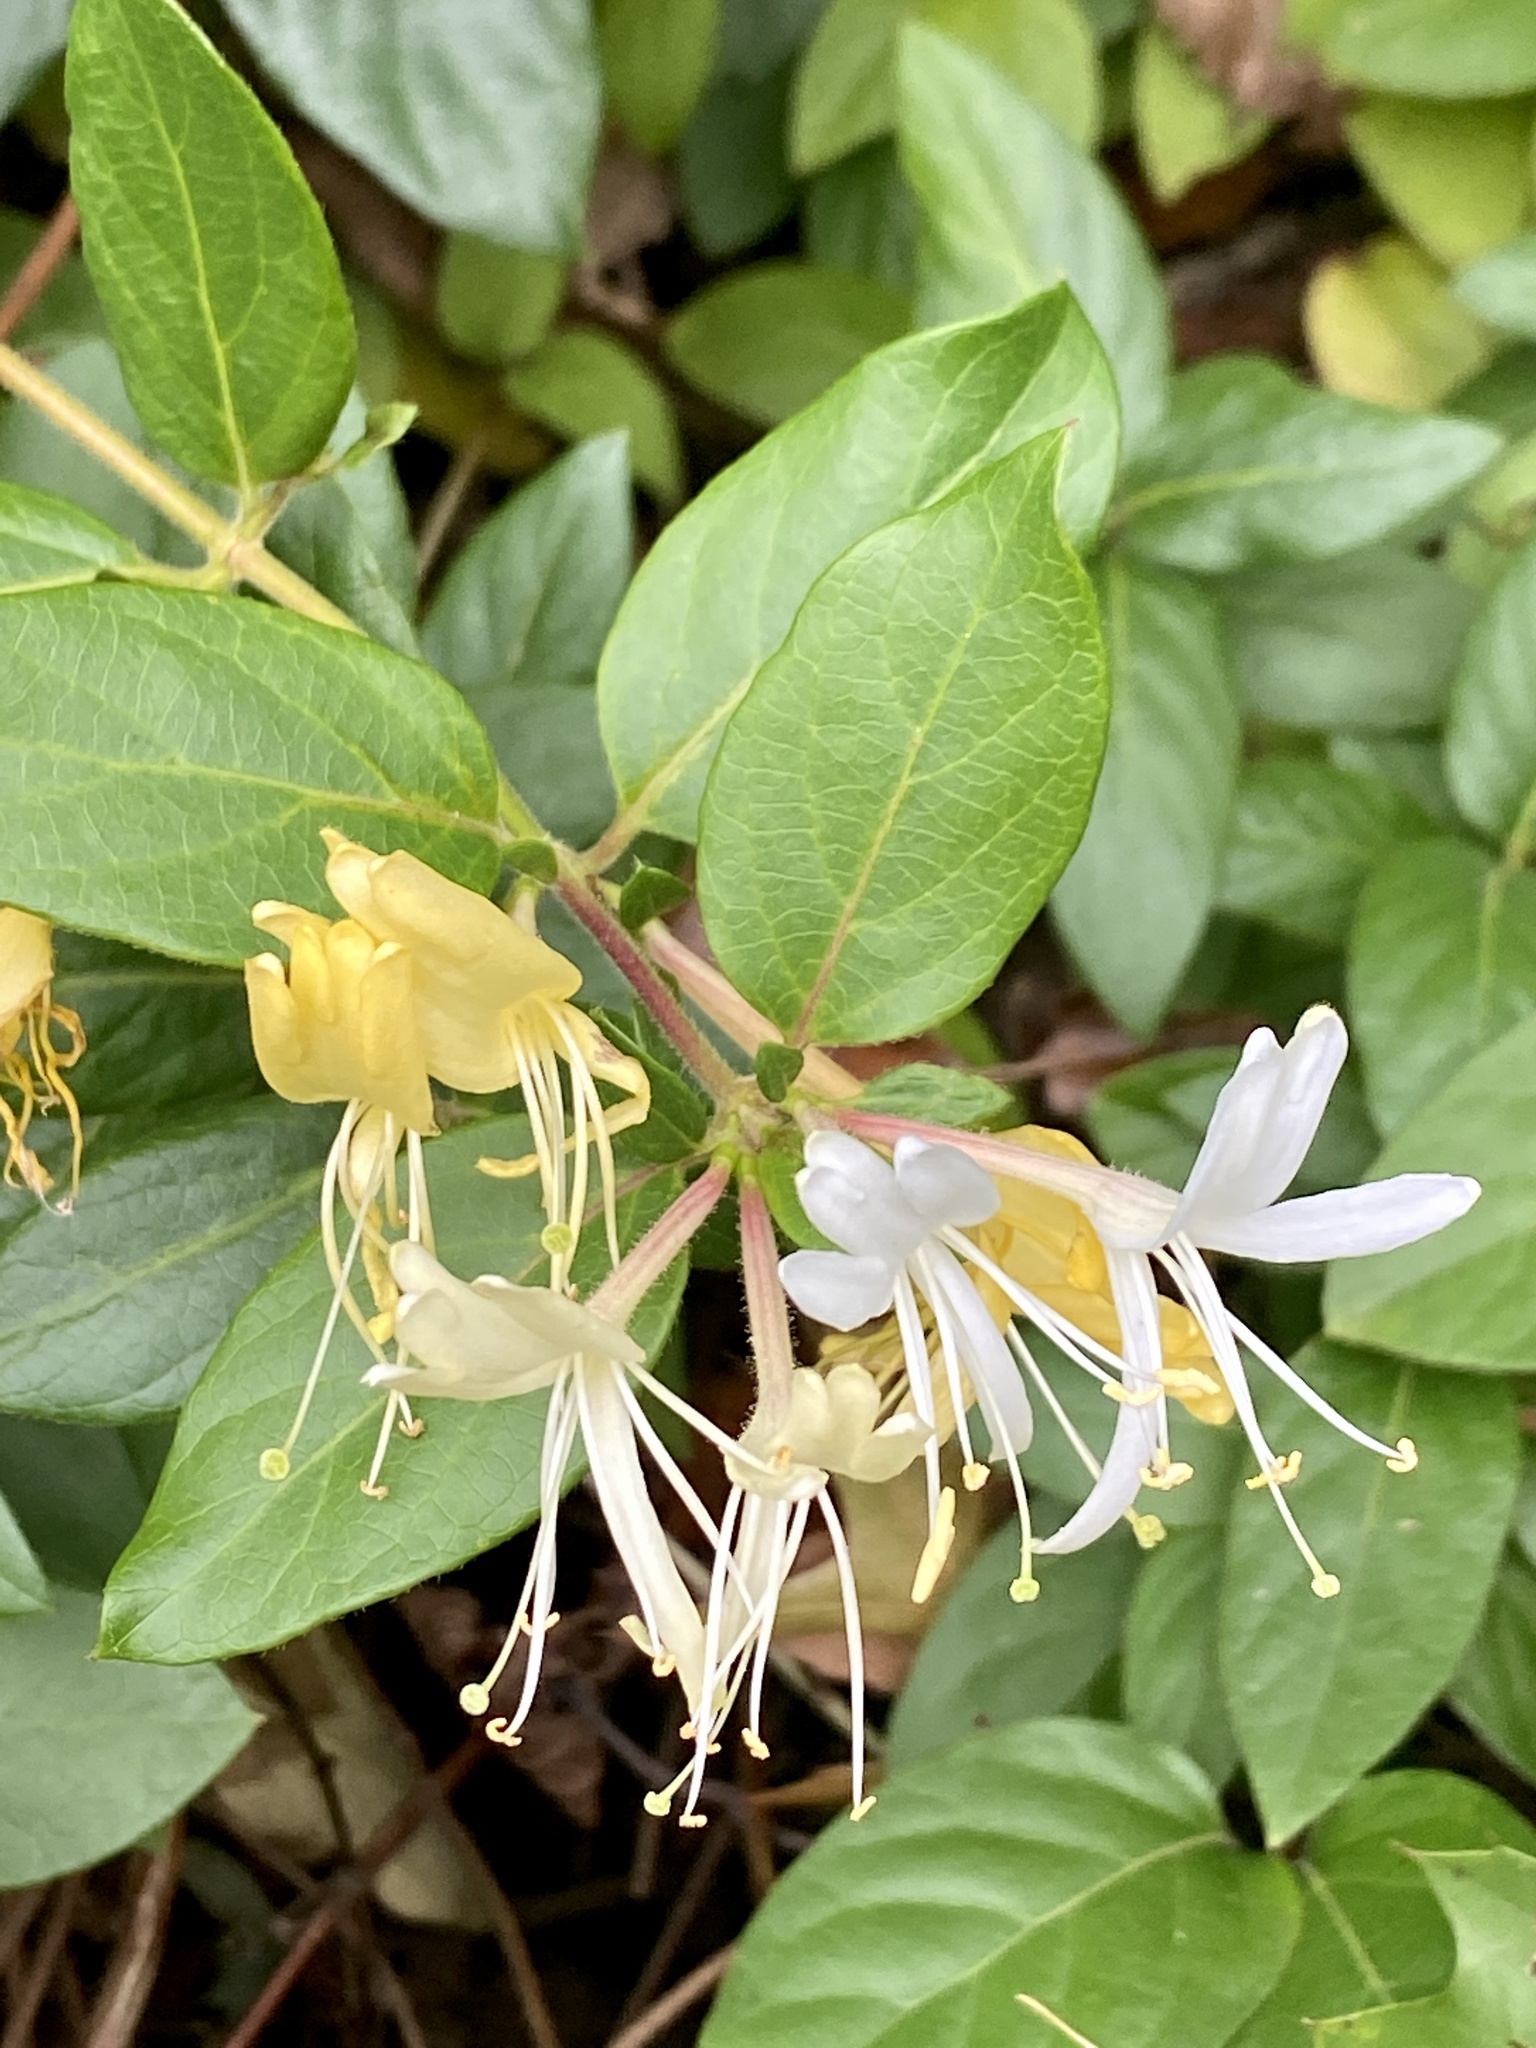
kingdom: Plantae
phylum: Tracheophyta
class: Magnoliopsida
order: Dipsacales
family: Caprifoliaceae
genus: Lonicera
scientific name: Lonicera japonica
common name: Japanese honeysuckle
